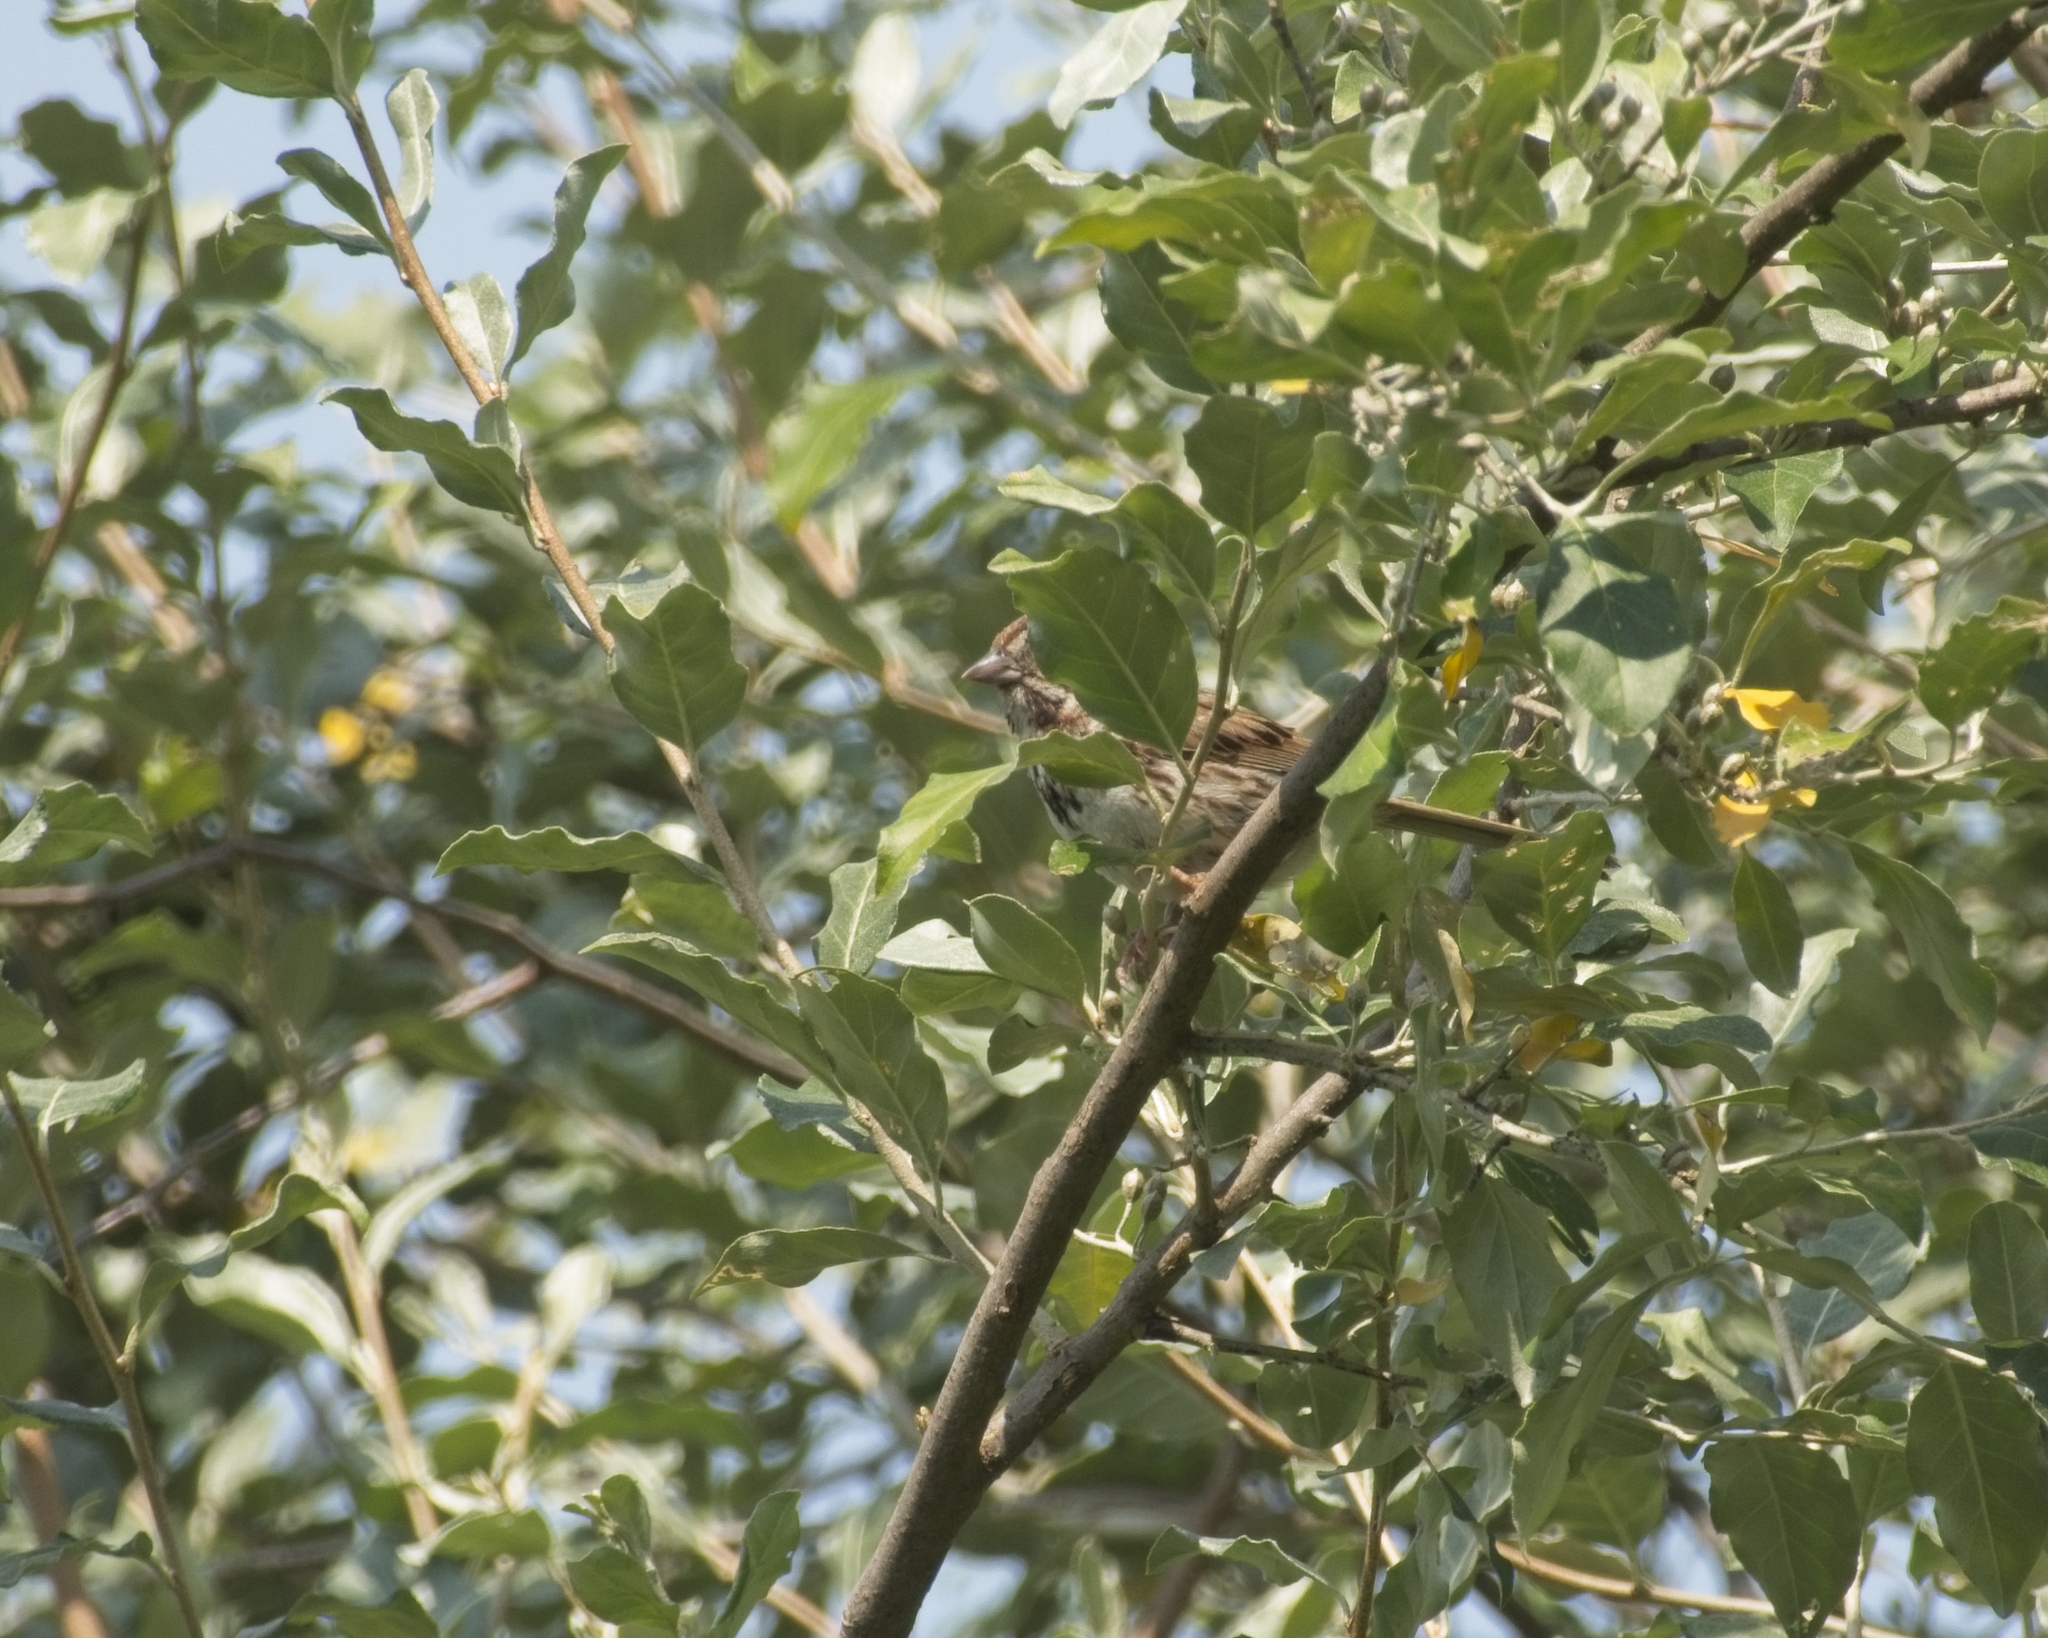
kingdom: Animalia
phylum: Chordata
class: Aves
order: Passeriformes
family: Passerellidae
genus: Melospiza
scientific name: Melospiza melodia
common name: Song sparrow
